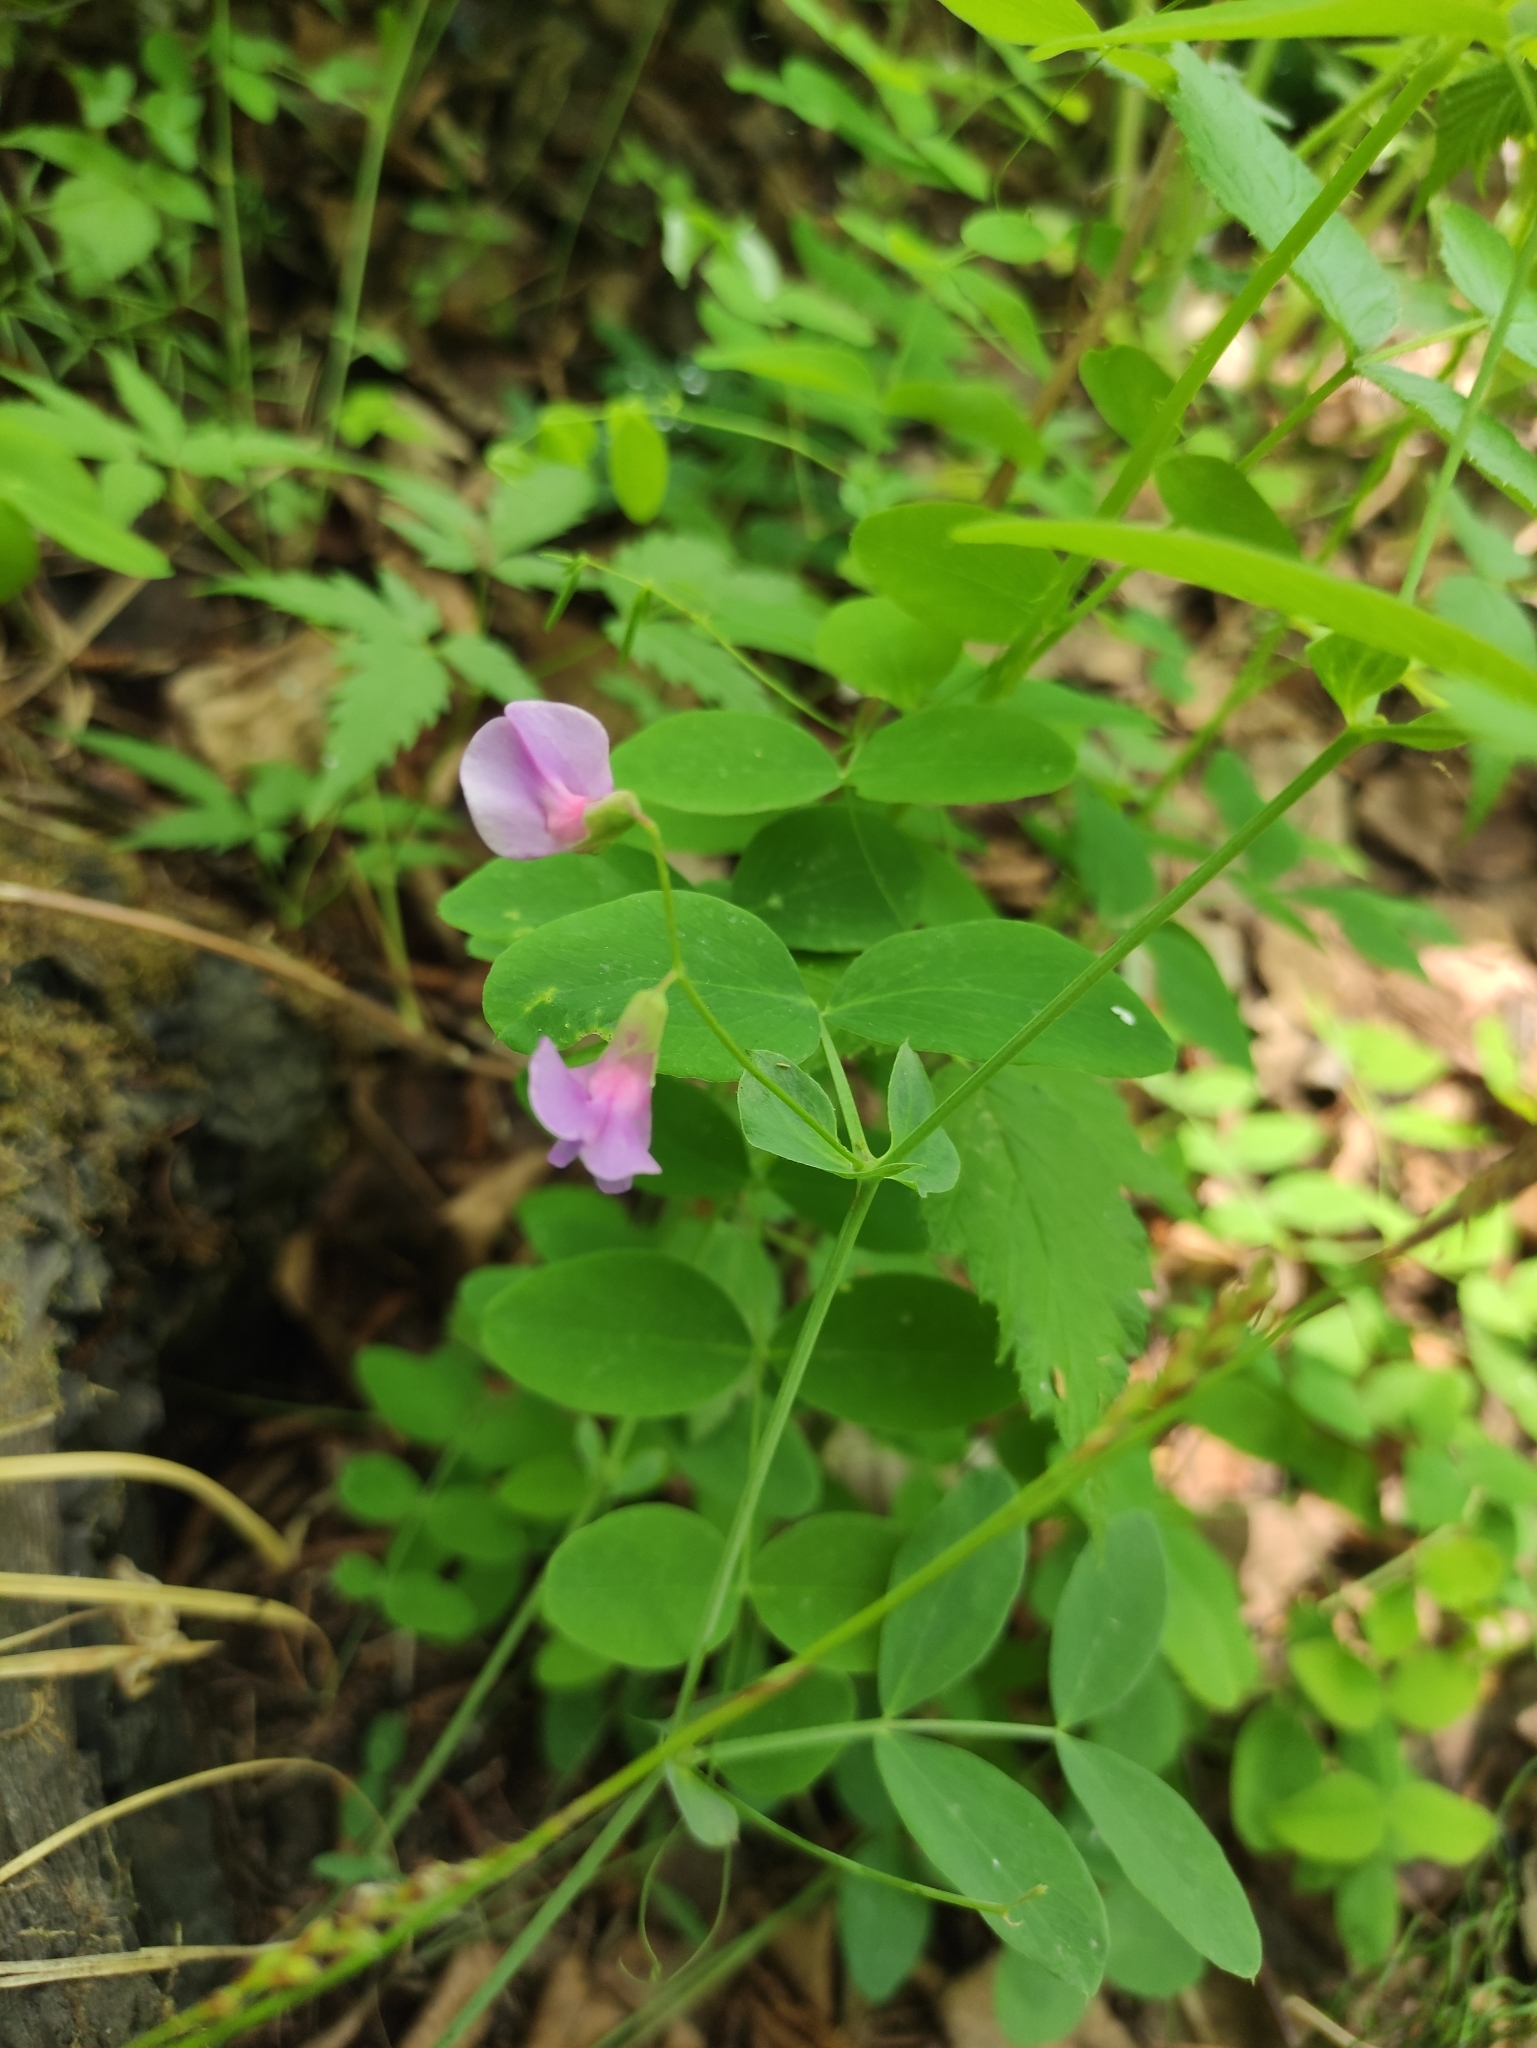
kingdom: Plantae
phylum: Tracheophyta
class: Magnoliopsida
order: Fabales
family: Fabaceae
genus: Lathyrus
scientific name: Lathyrus humilis
